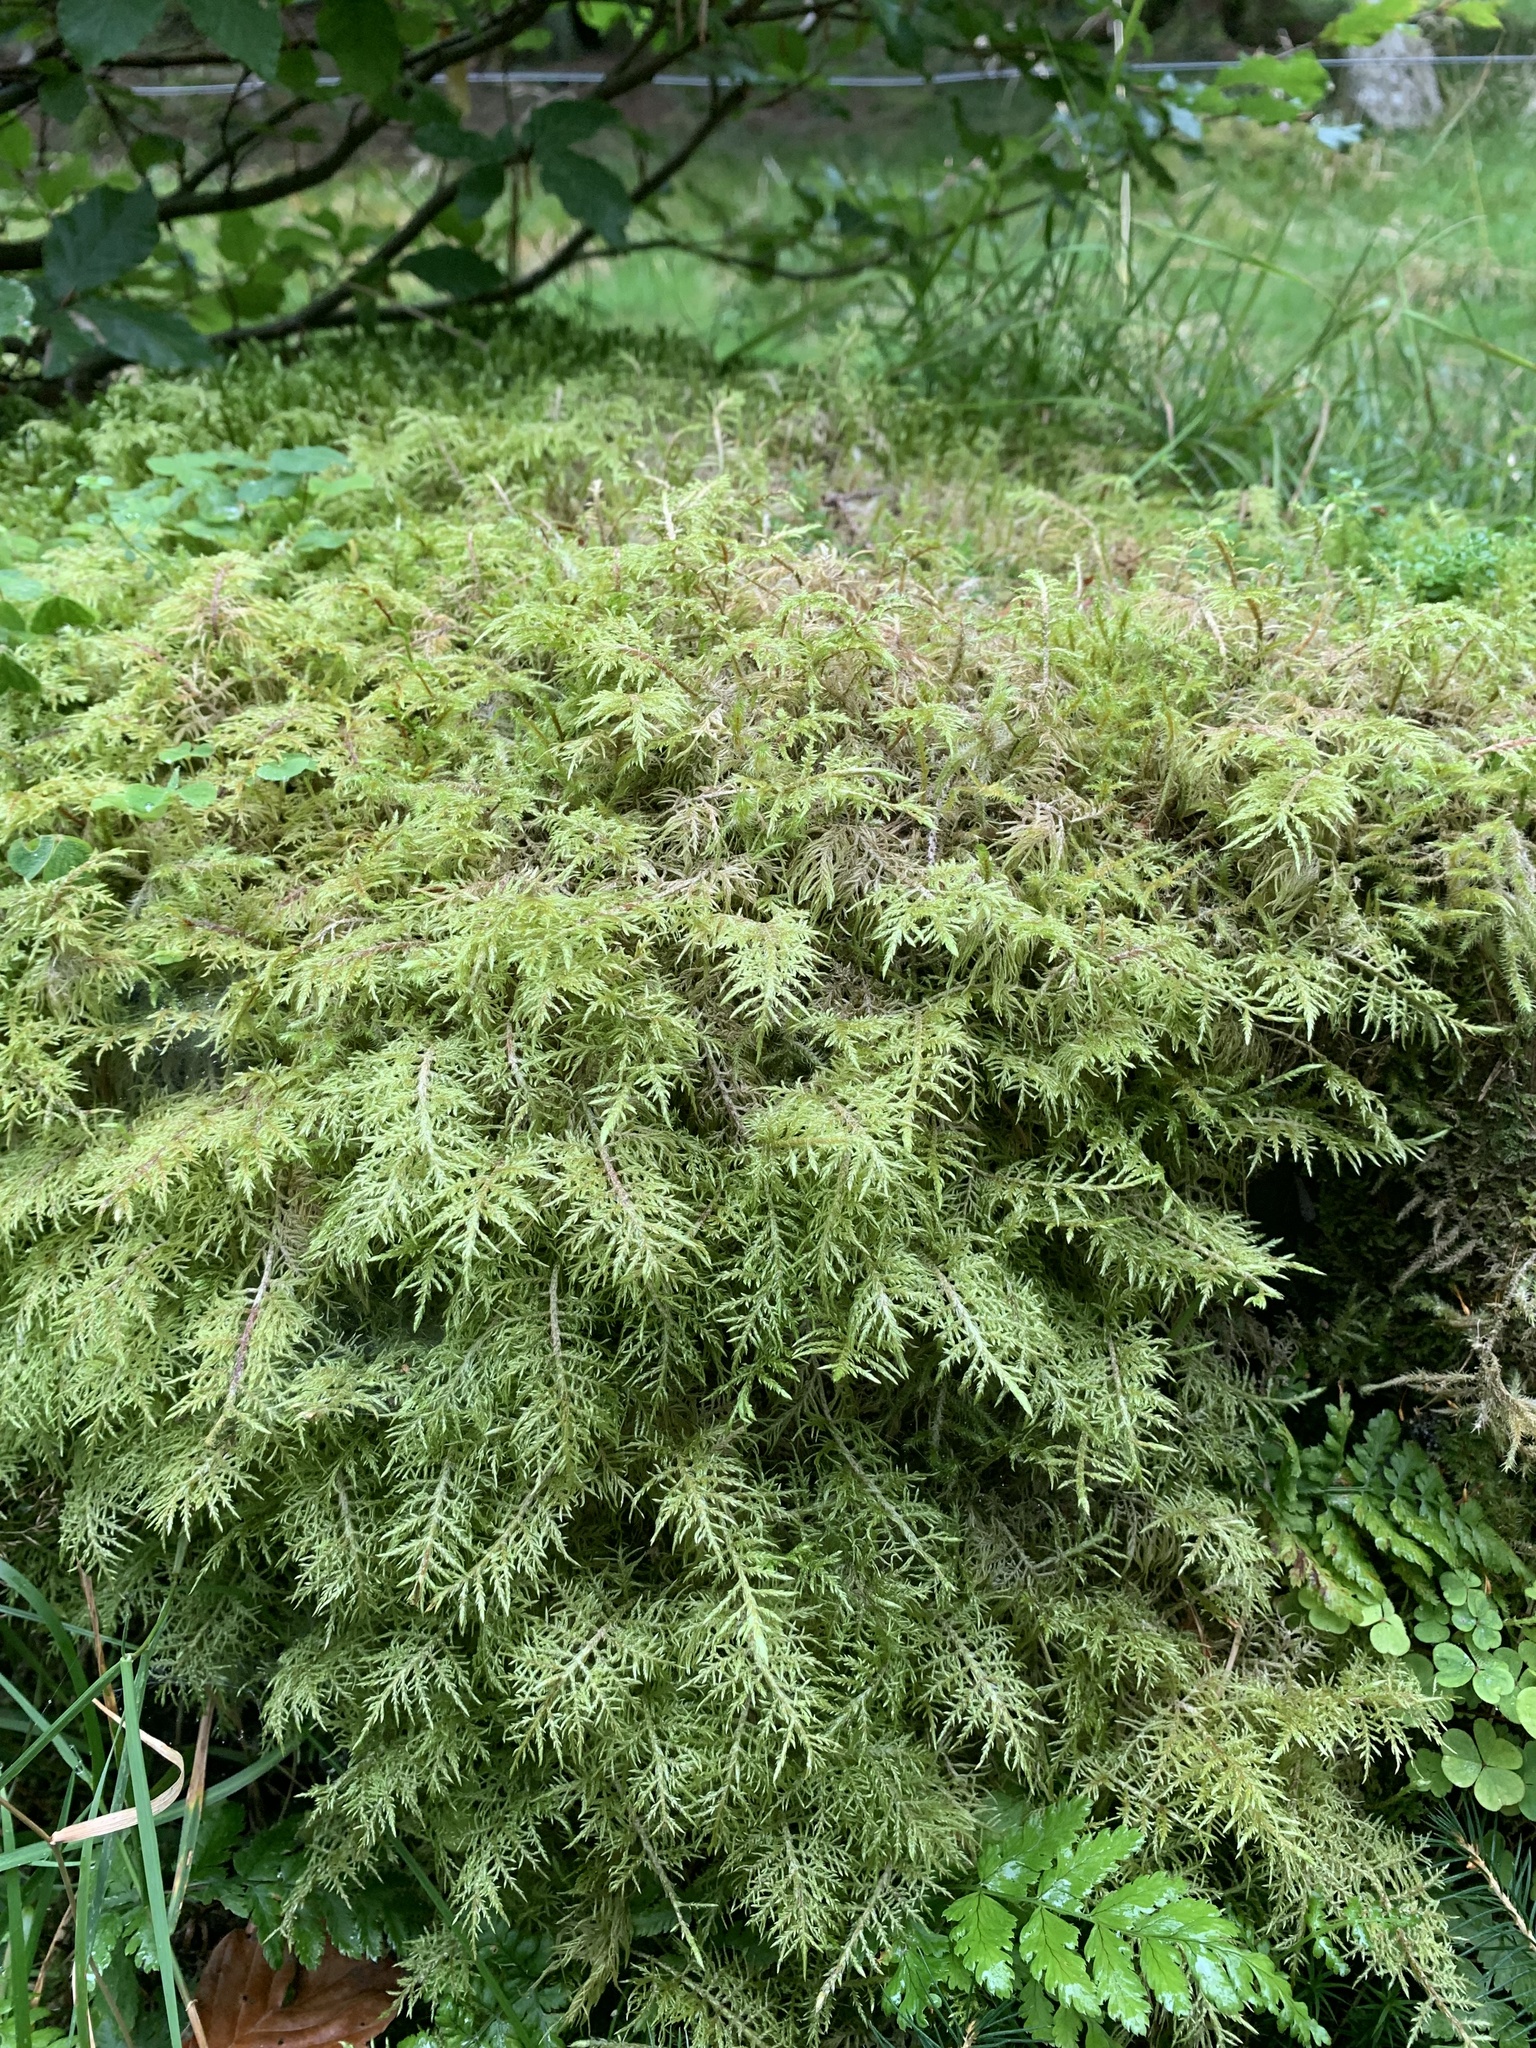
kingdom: Plantae
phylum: Bryophyta
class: Bryopsida
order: Hypnales
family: Hylocomiaceae
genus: Hylocomium
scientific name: Hylocomium splendens
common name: Stairstep moss
